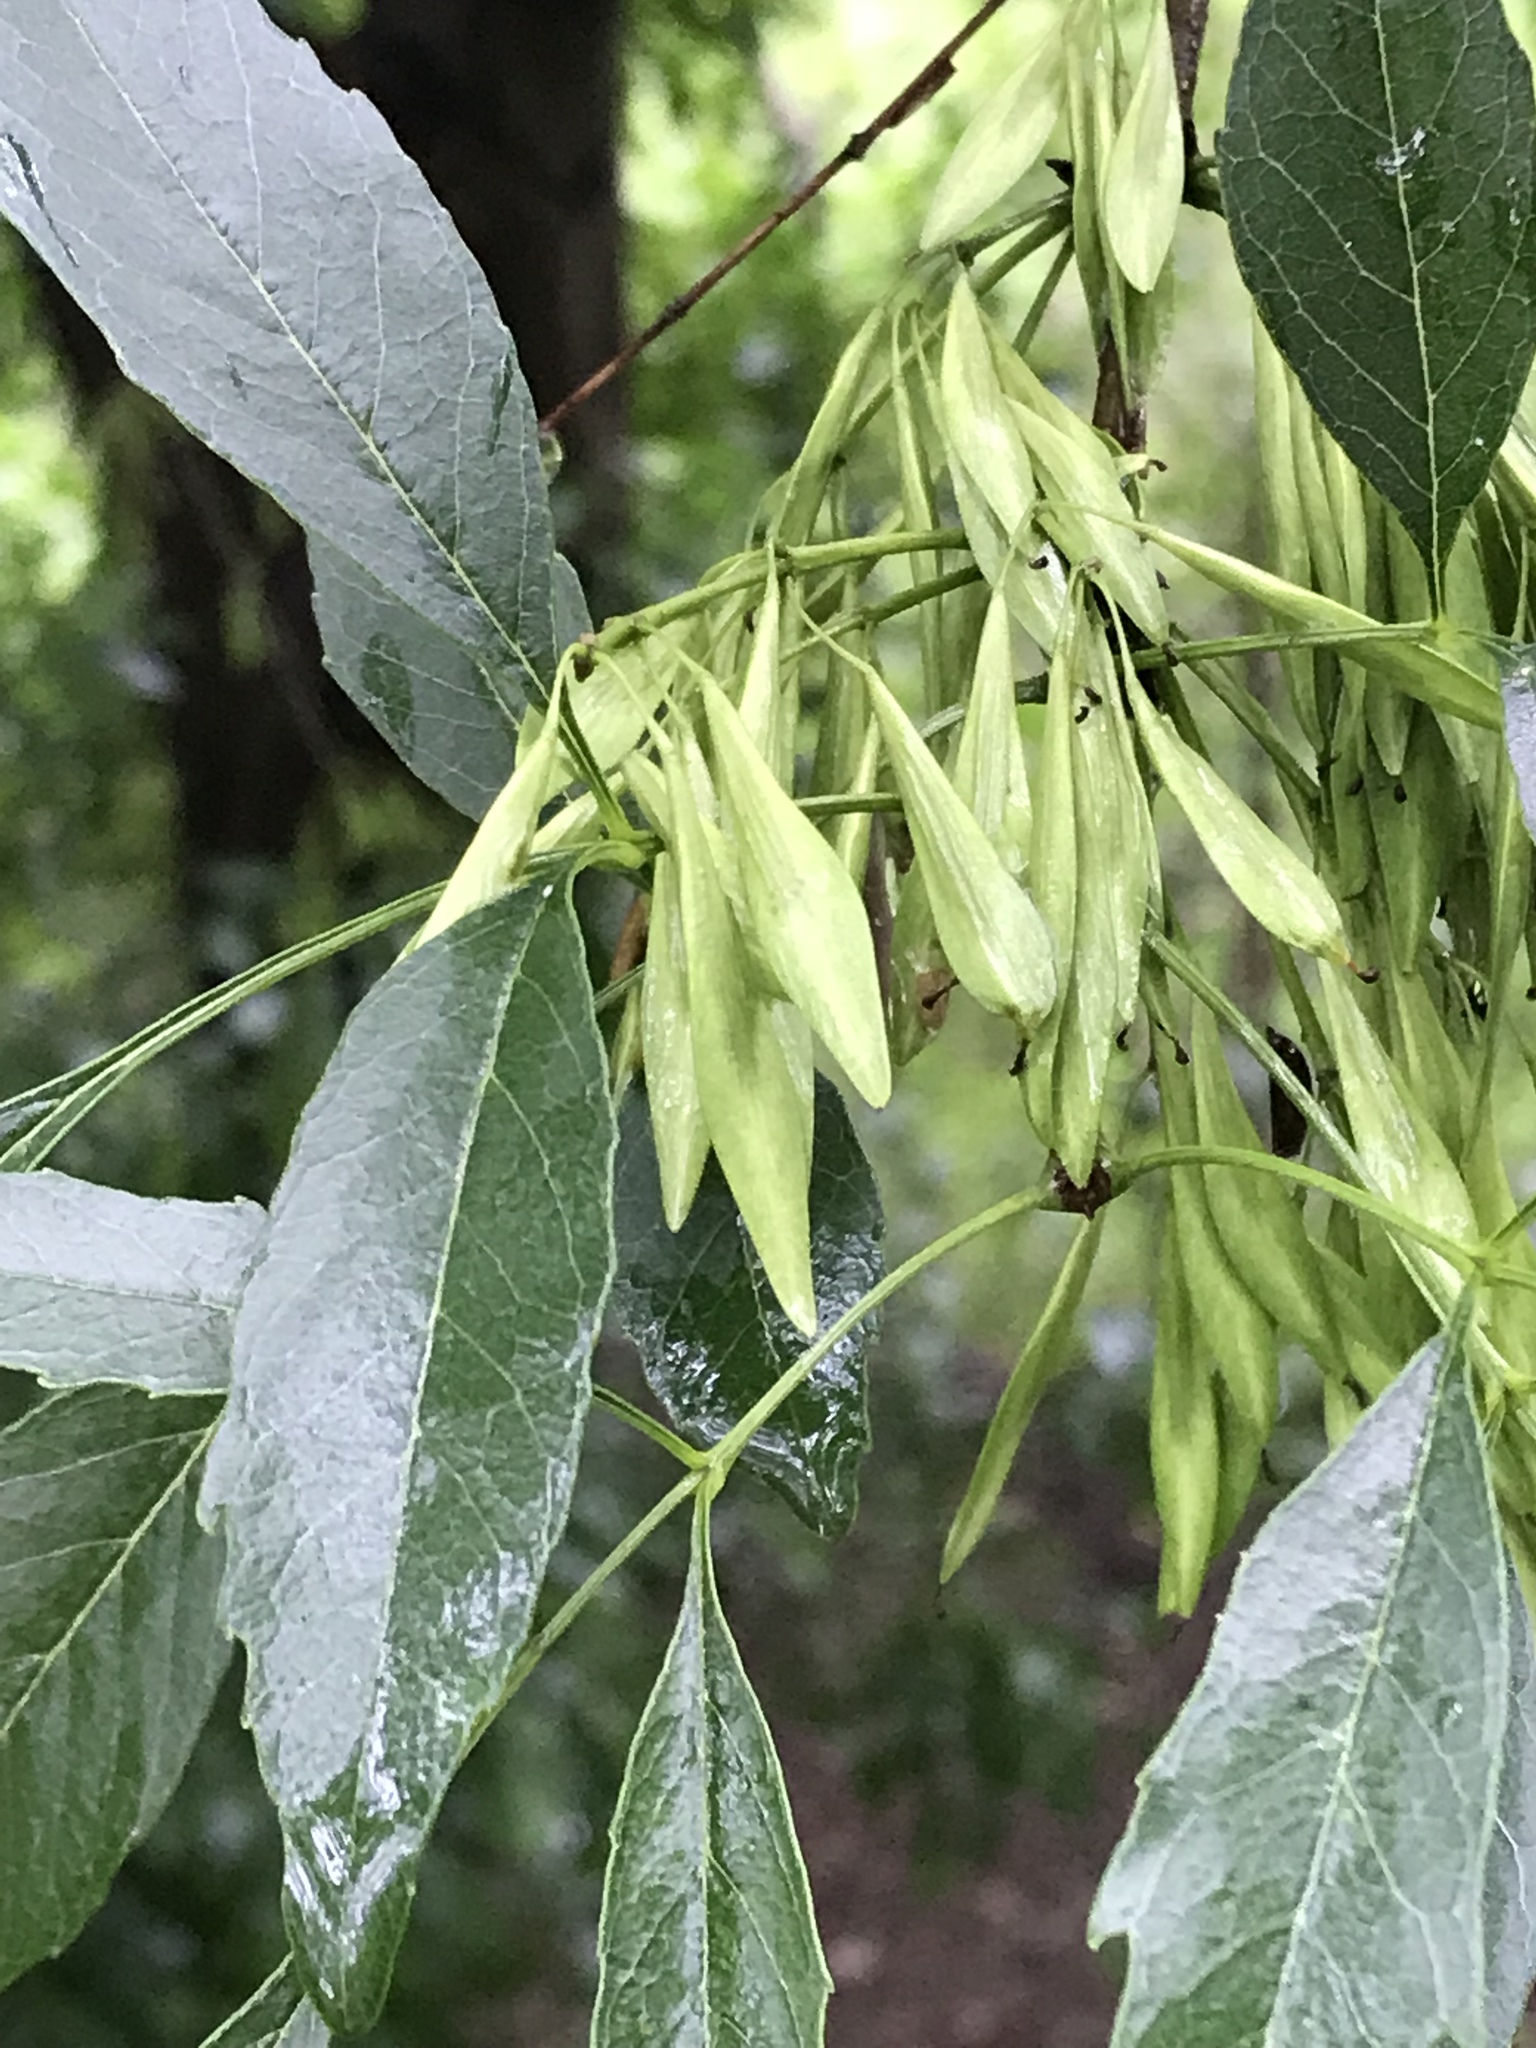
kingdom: Plantae
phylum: Tracheophyta
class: Magnoliopsida
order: Lamiales
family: Oleaceae
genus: Fraxinus
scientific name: Fraxinus berlandieriana
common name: Berlandier ash
